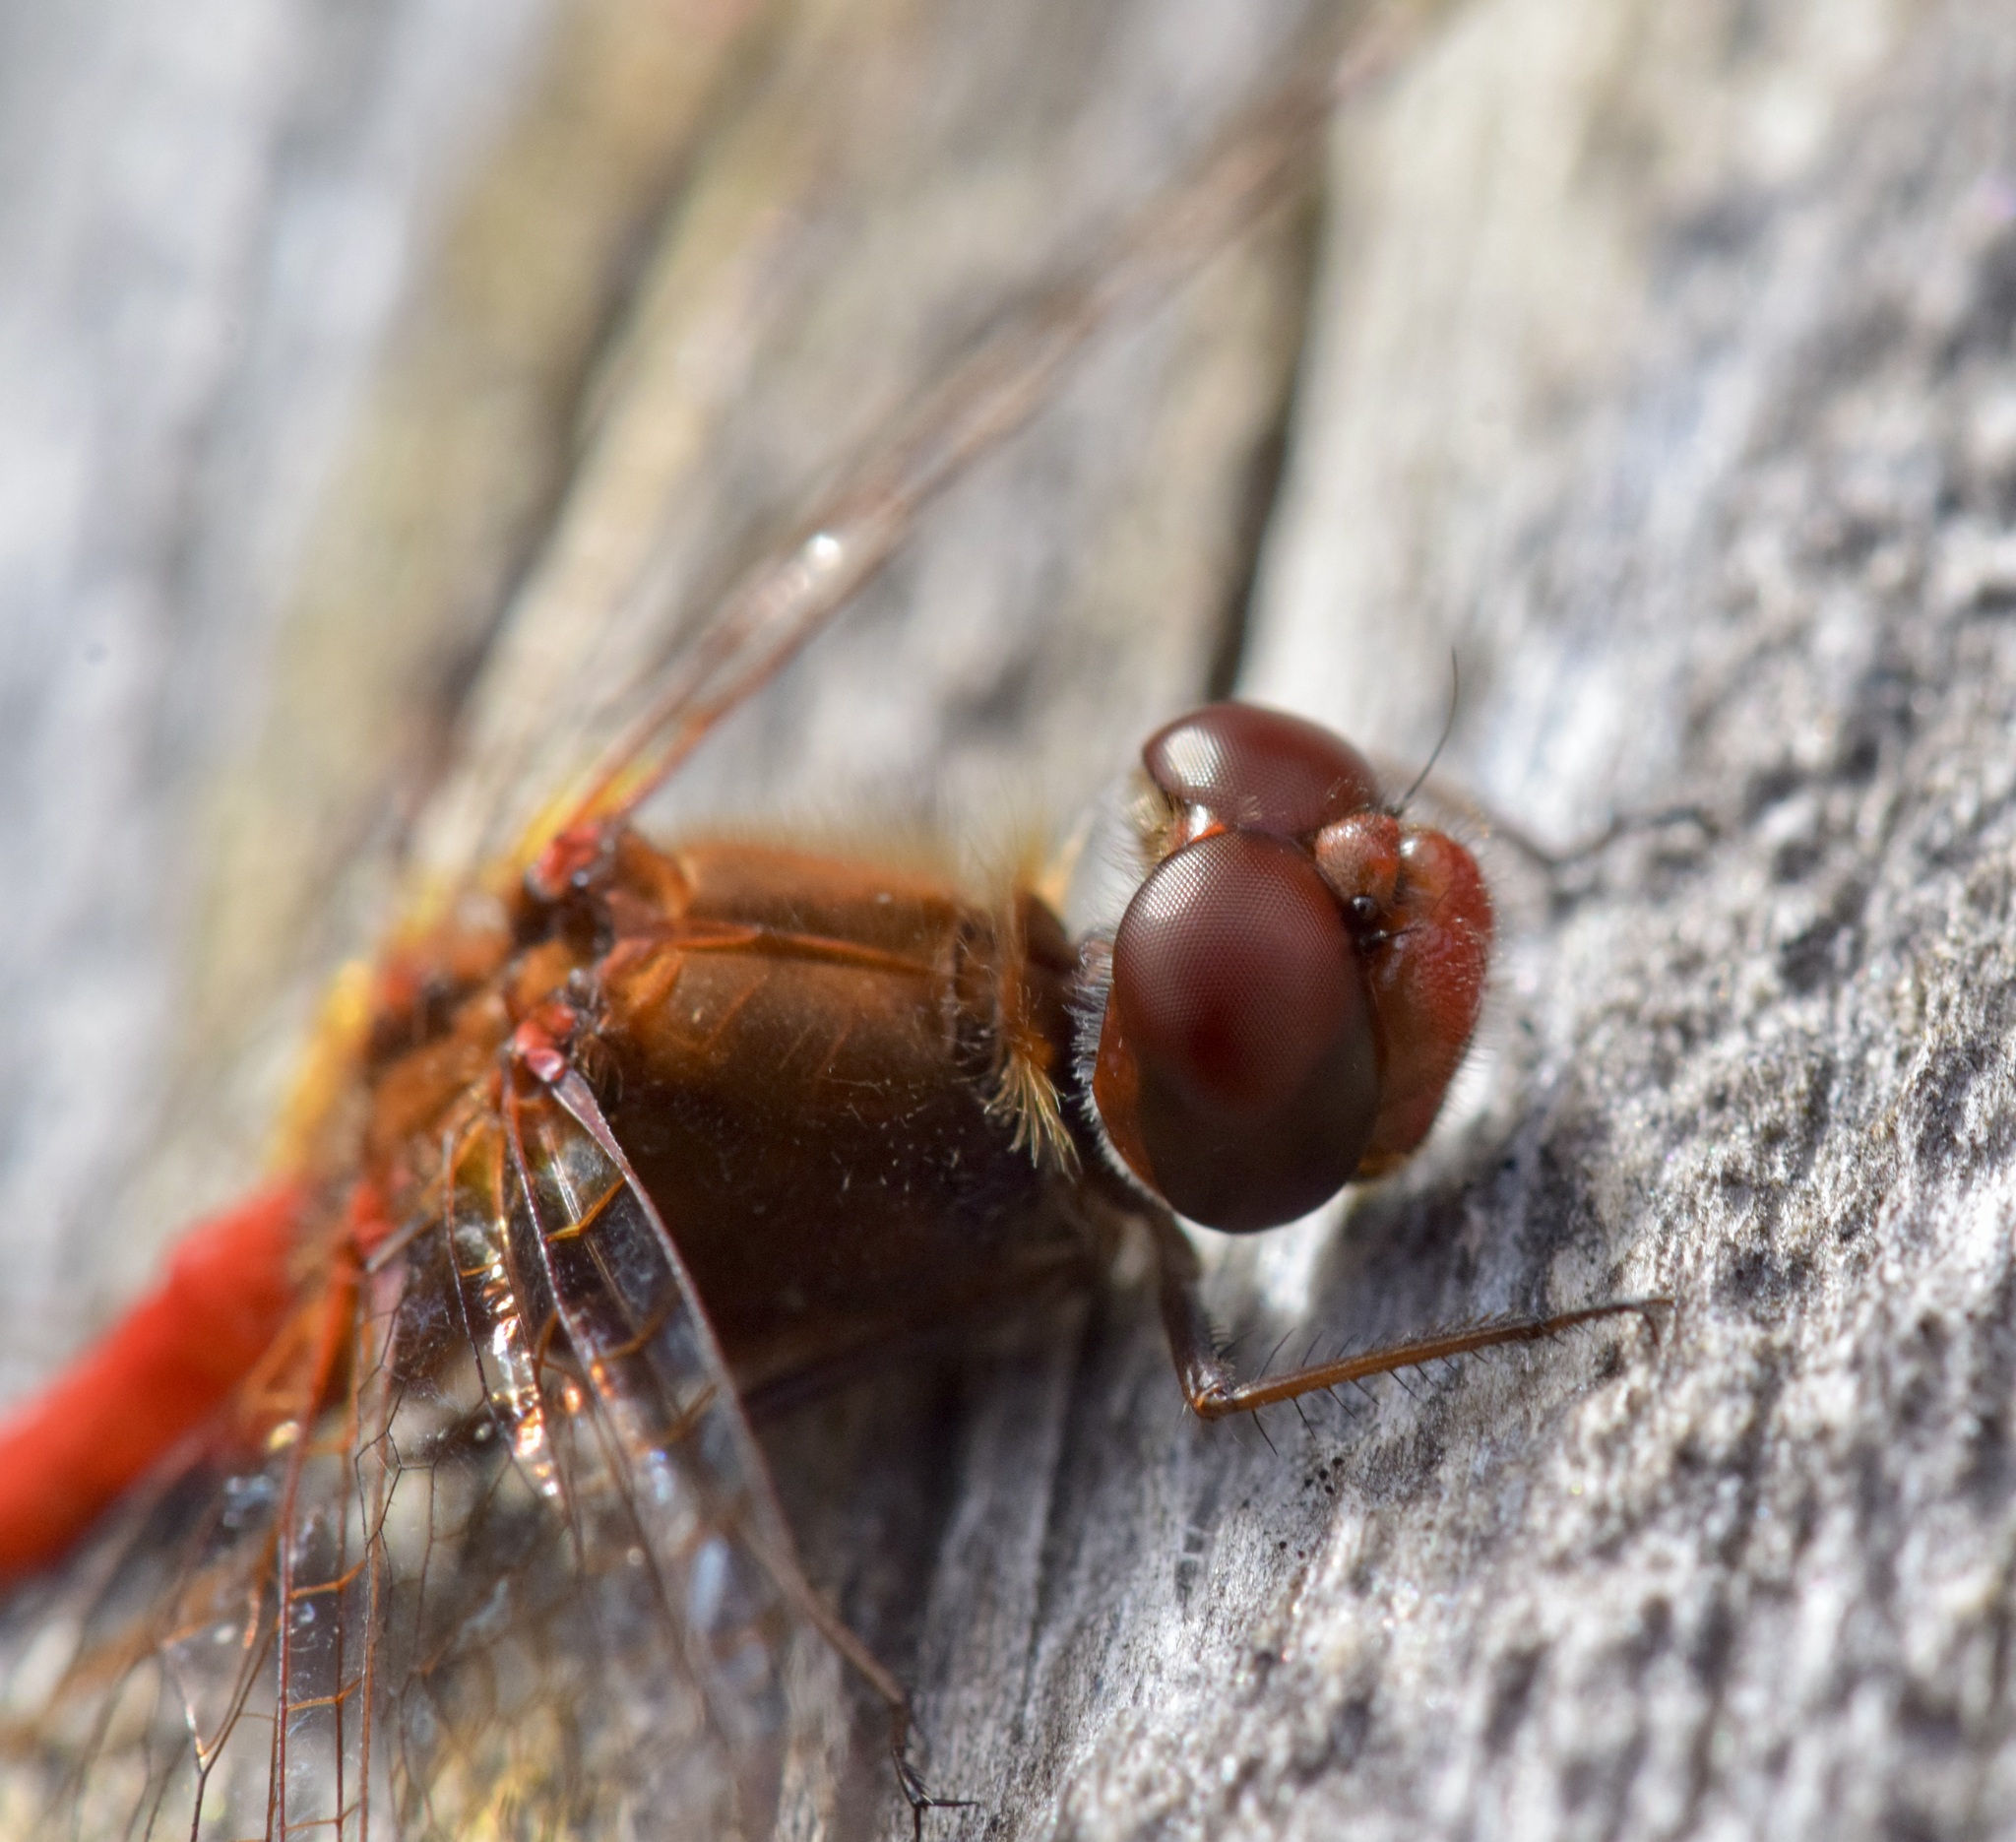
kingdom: Animalia
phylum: Arthropoda
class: Insecta
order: Odonata
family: Libellulidae
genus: Sympetrum
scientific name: Sympetrum vicinum
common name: Autumn meadowhawk
